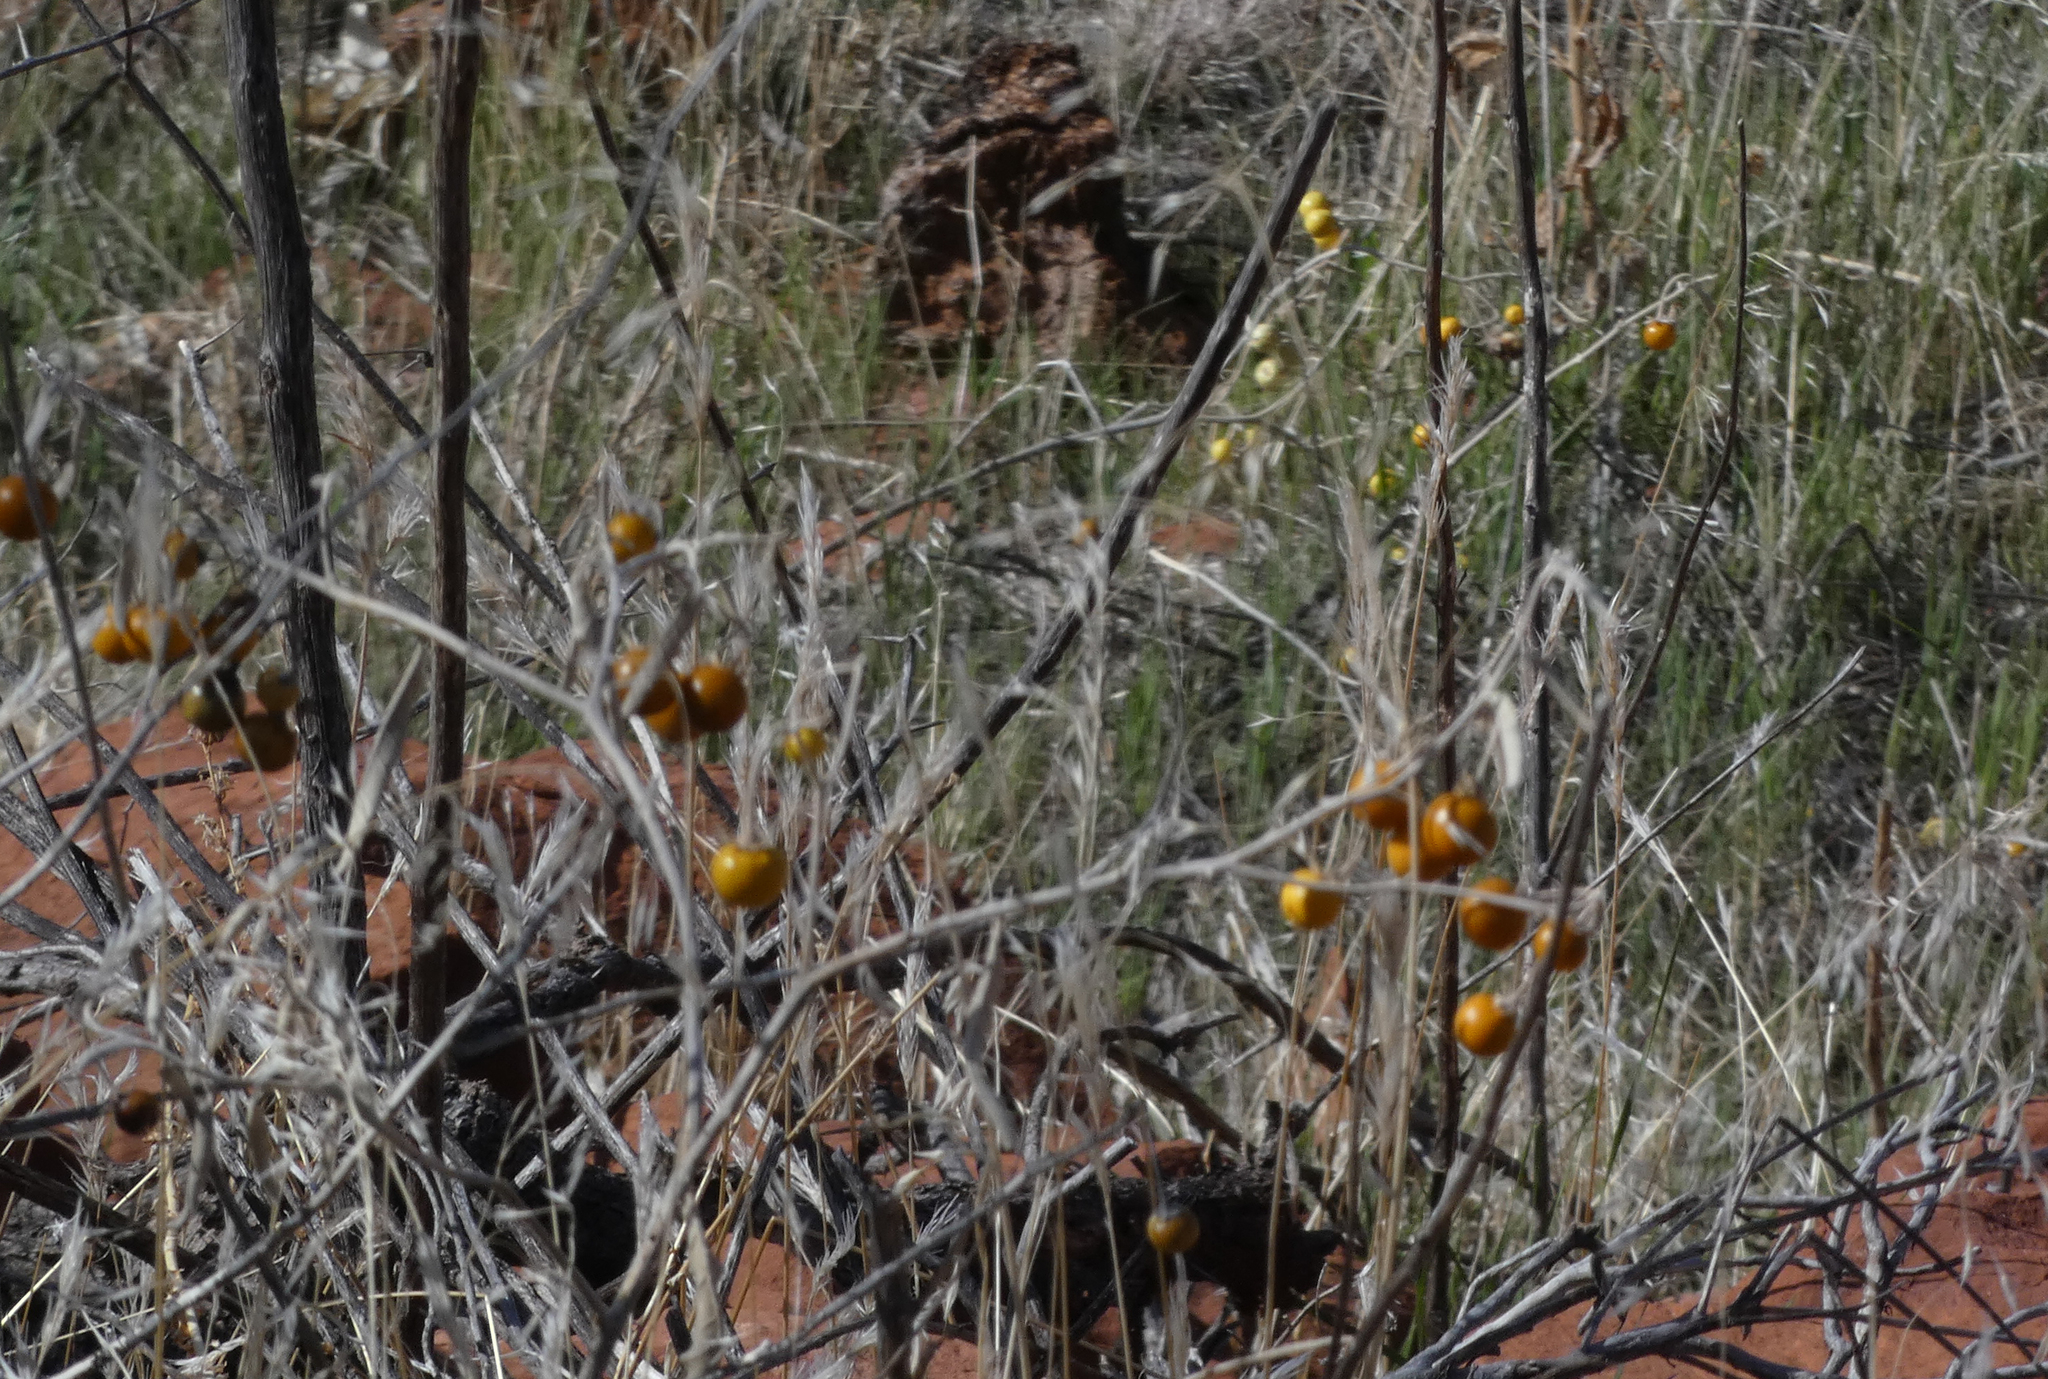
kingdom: Plantae
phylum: Tracheophyta
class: Magnoliopsida
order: Solanales
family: Solanaceae
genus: Solanum
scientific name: Solanum elaeagnifolium
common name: Silverleaf nightshade
